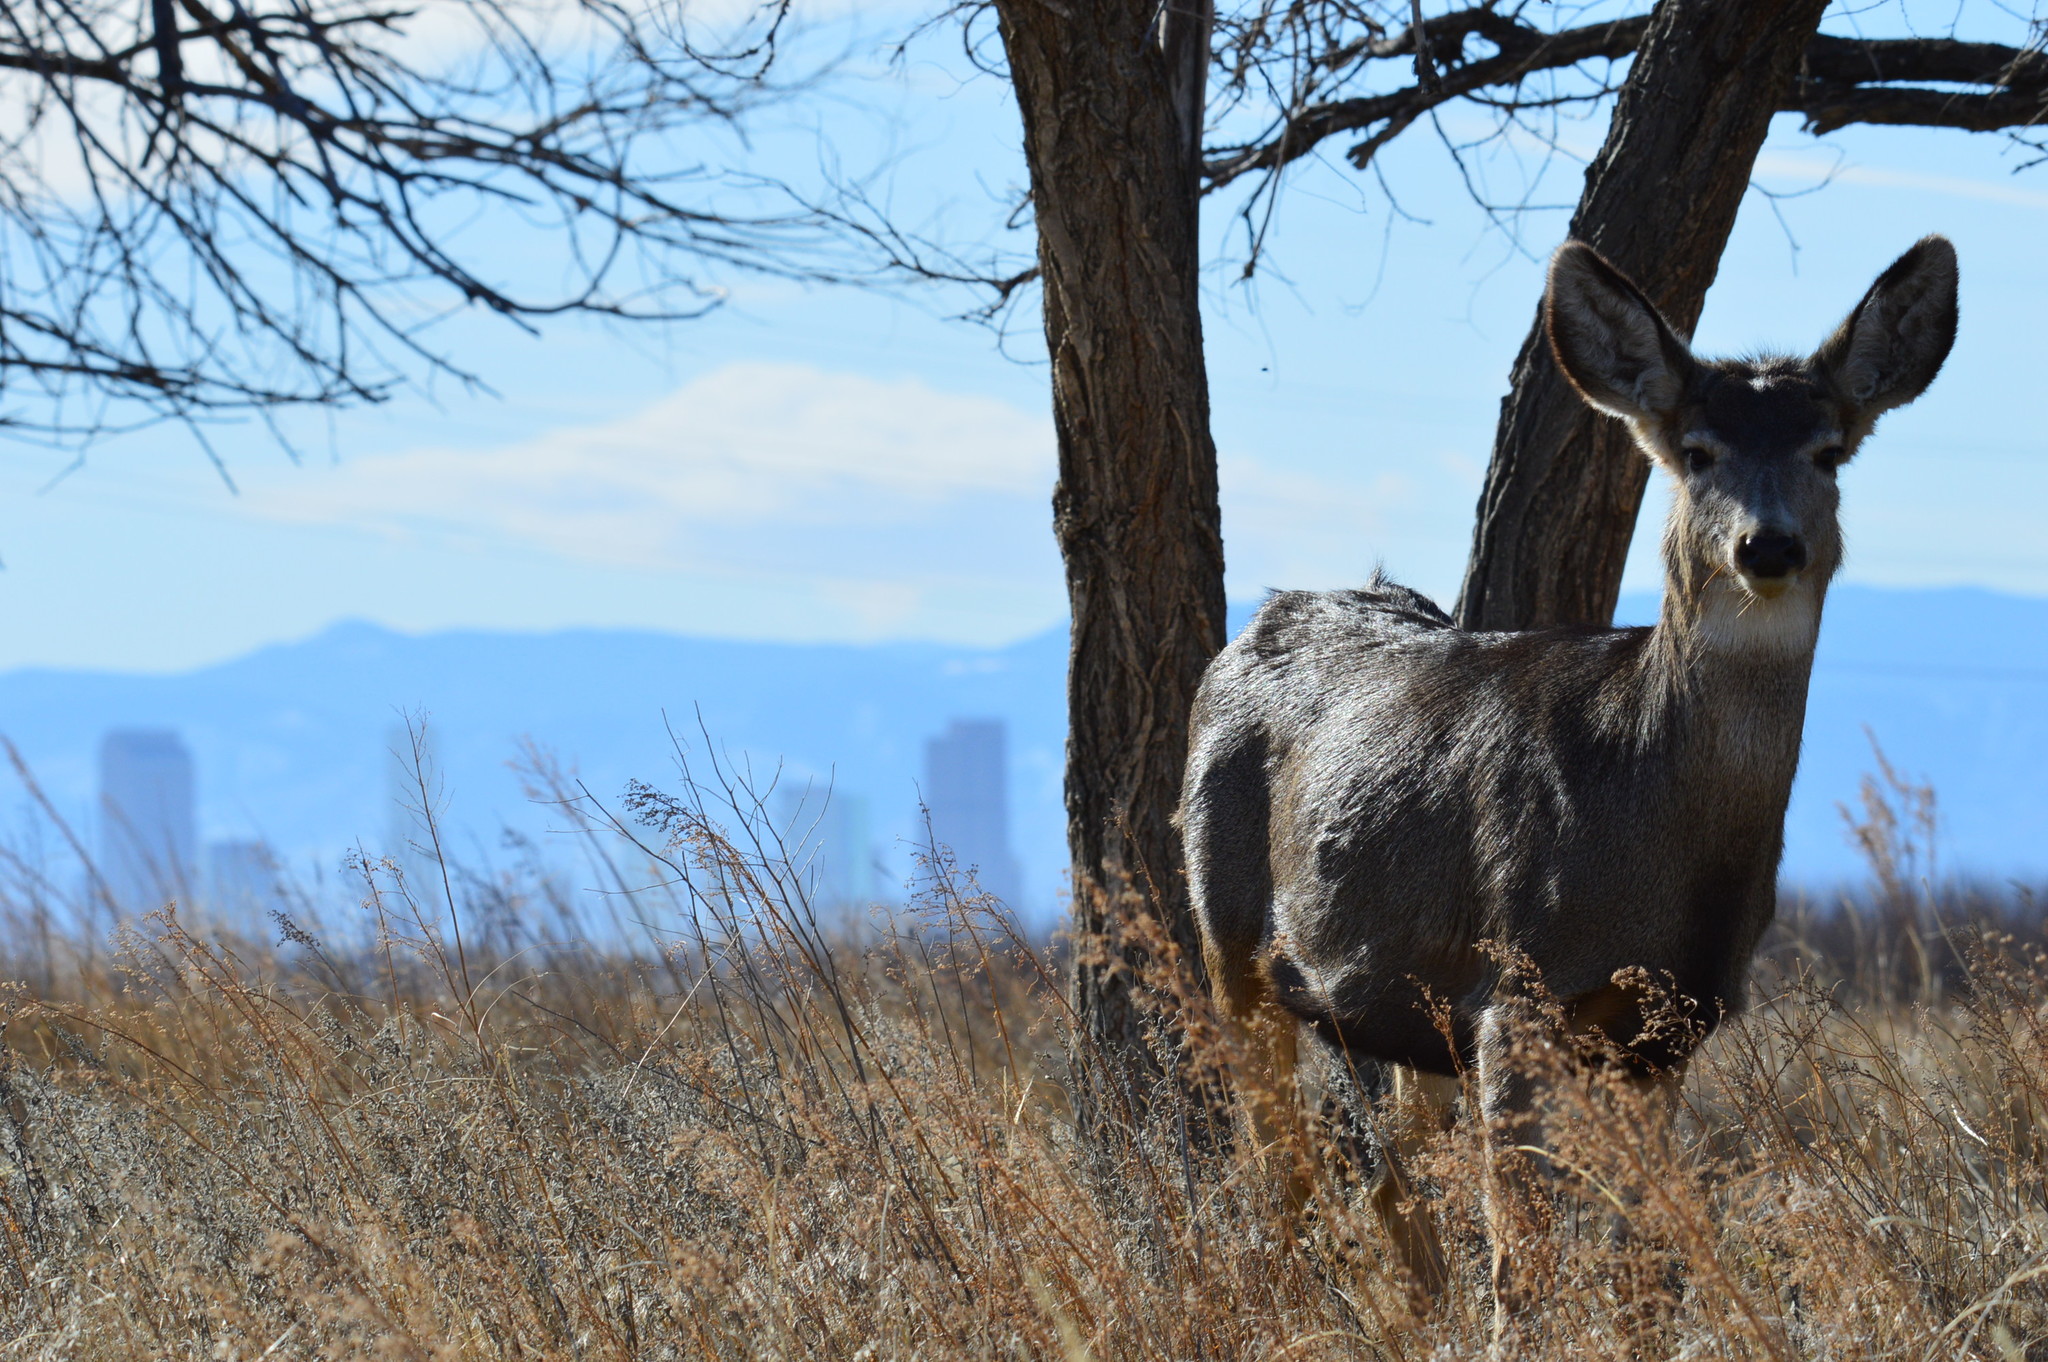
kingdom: Animalia
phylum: Chordata
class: Mammalia
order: Artiodactyla
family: Cervidae
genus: Odocoileus
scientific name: Odocoileus hemionus
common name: Mule deer
